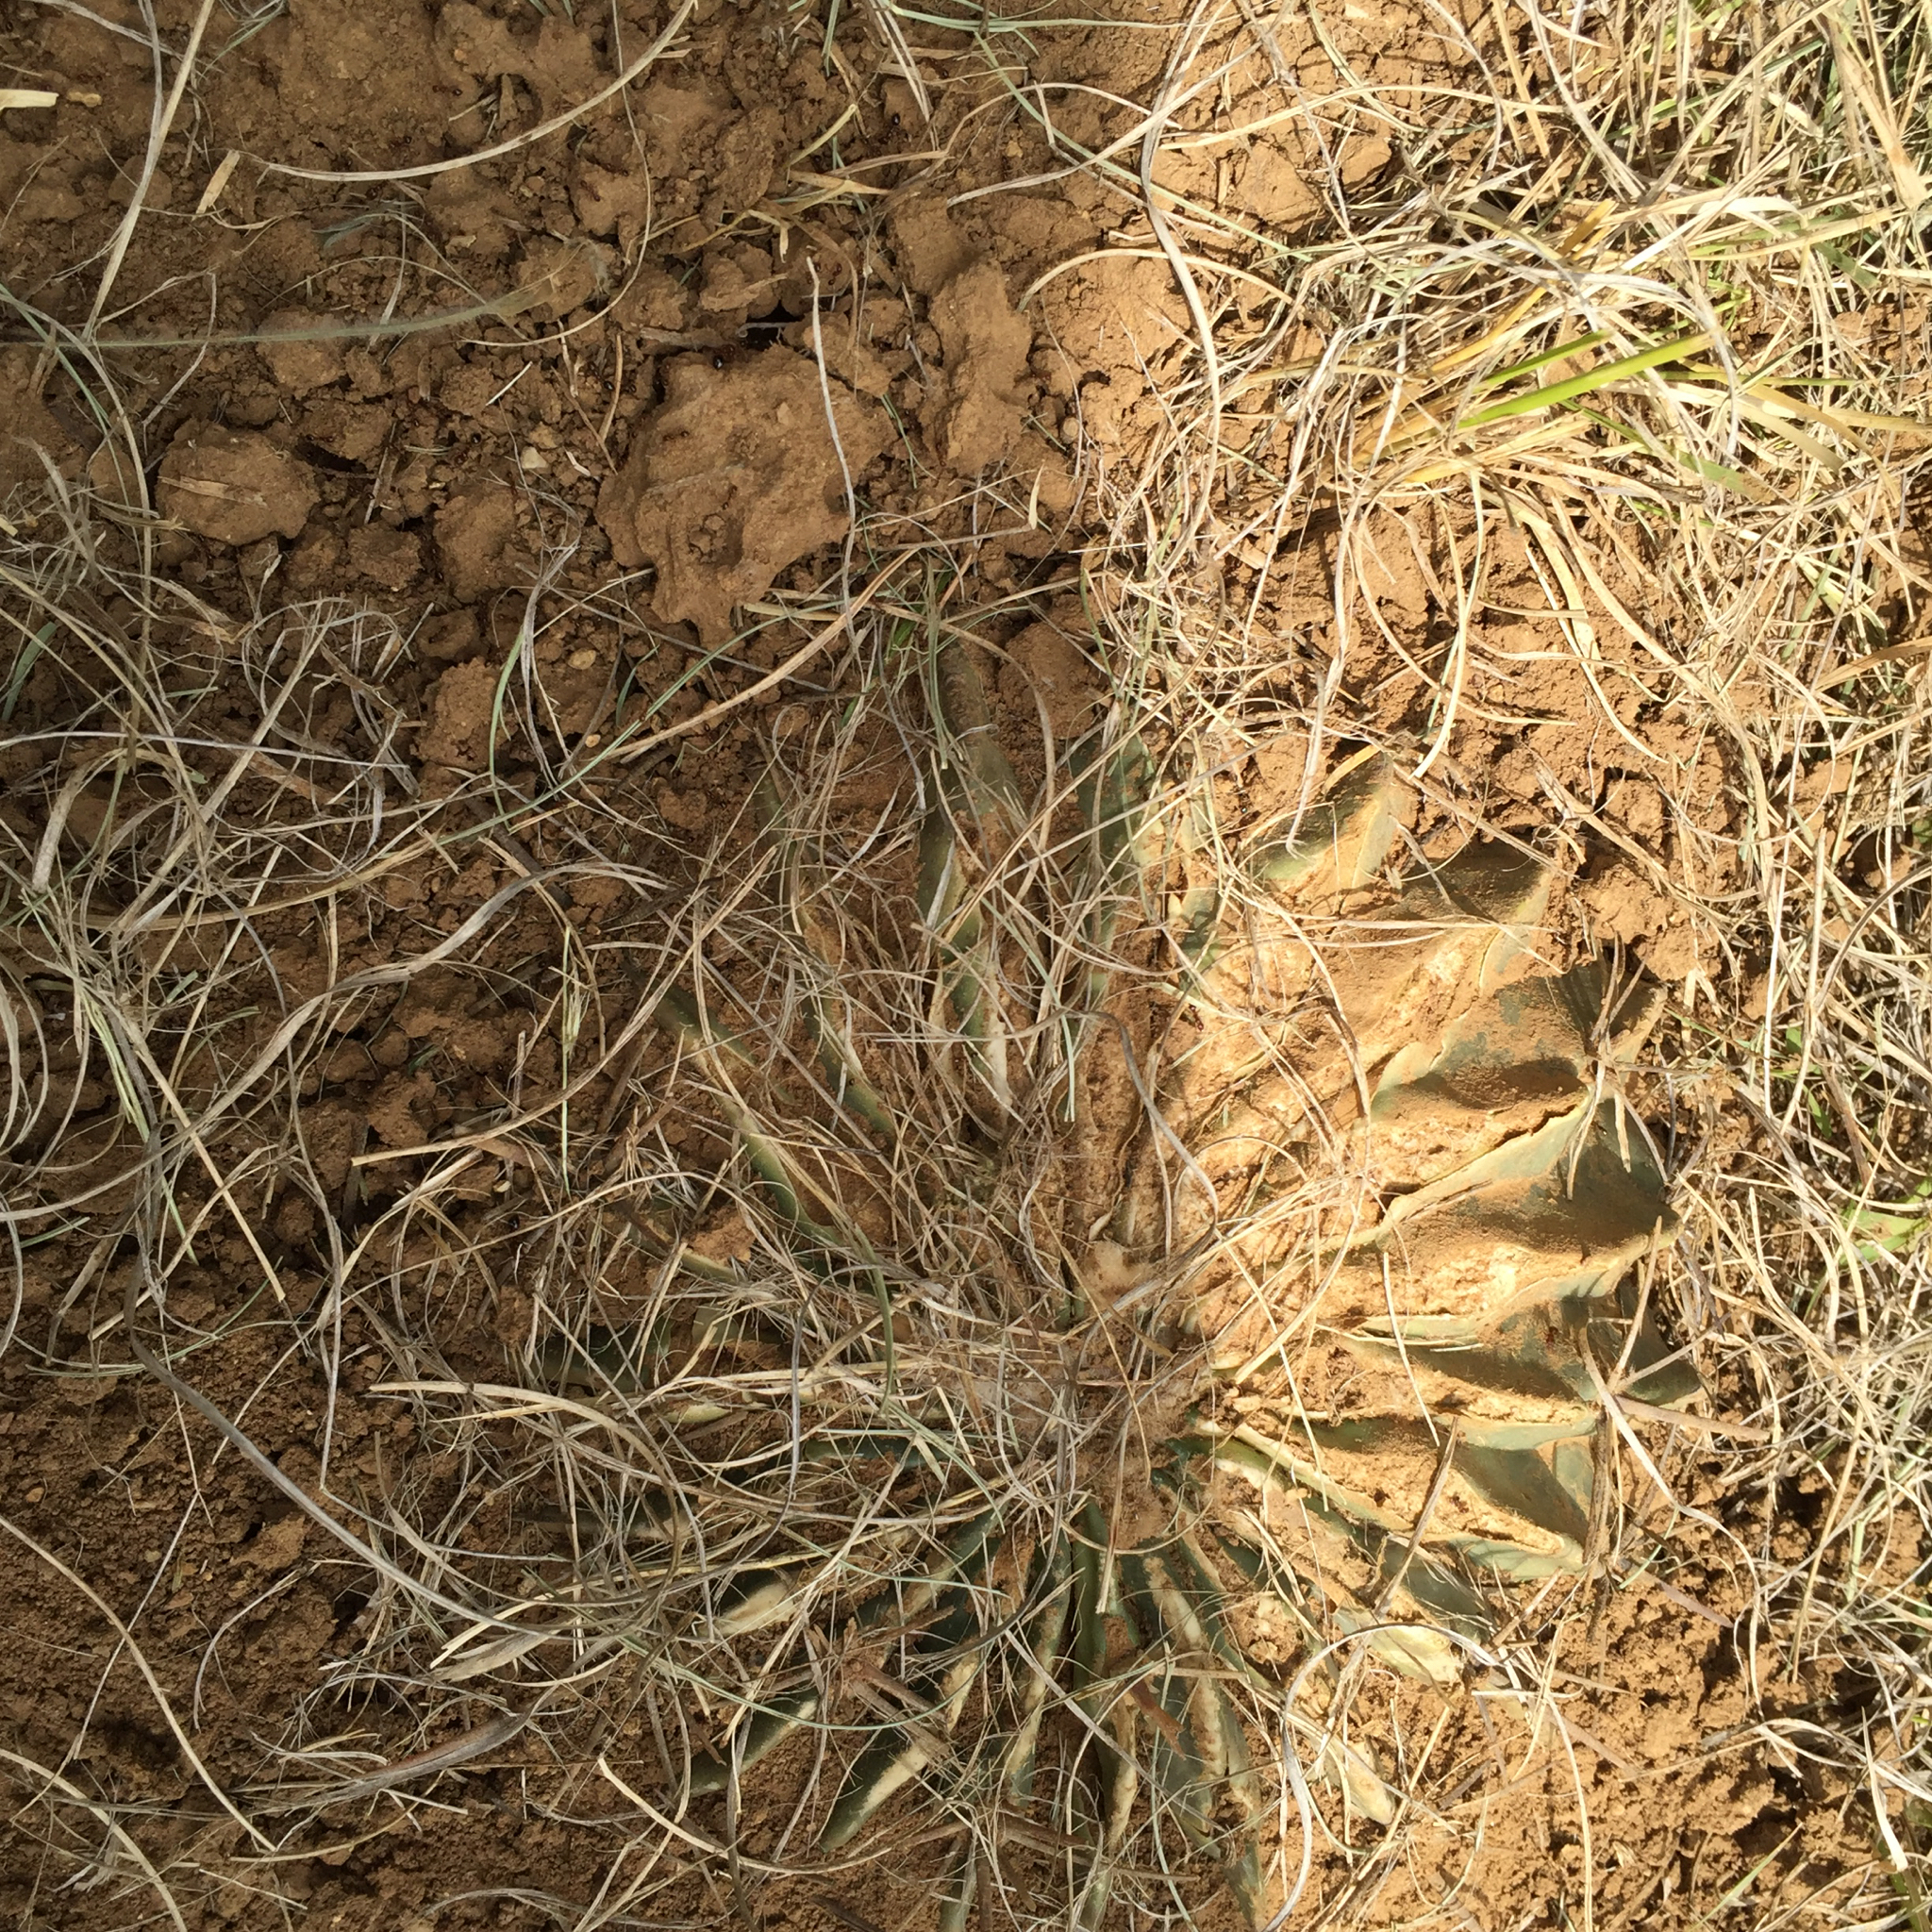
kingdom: Plantae
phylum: Tracheophyta
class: Magnoliopsida
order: Caryophyllales
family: Cactaceae
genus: Echinocactus
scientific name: Echinocactus texensis
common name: Devil's pincushion
